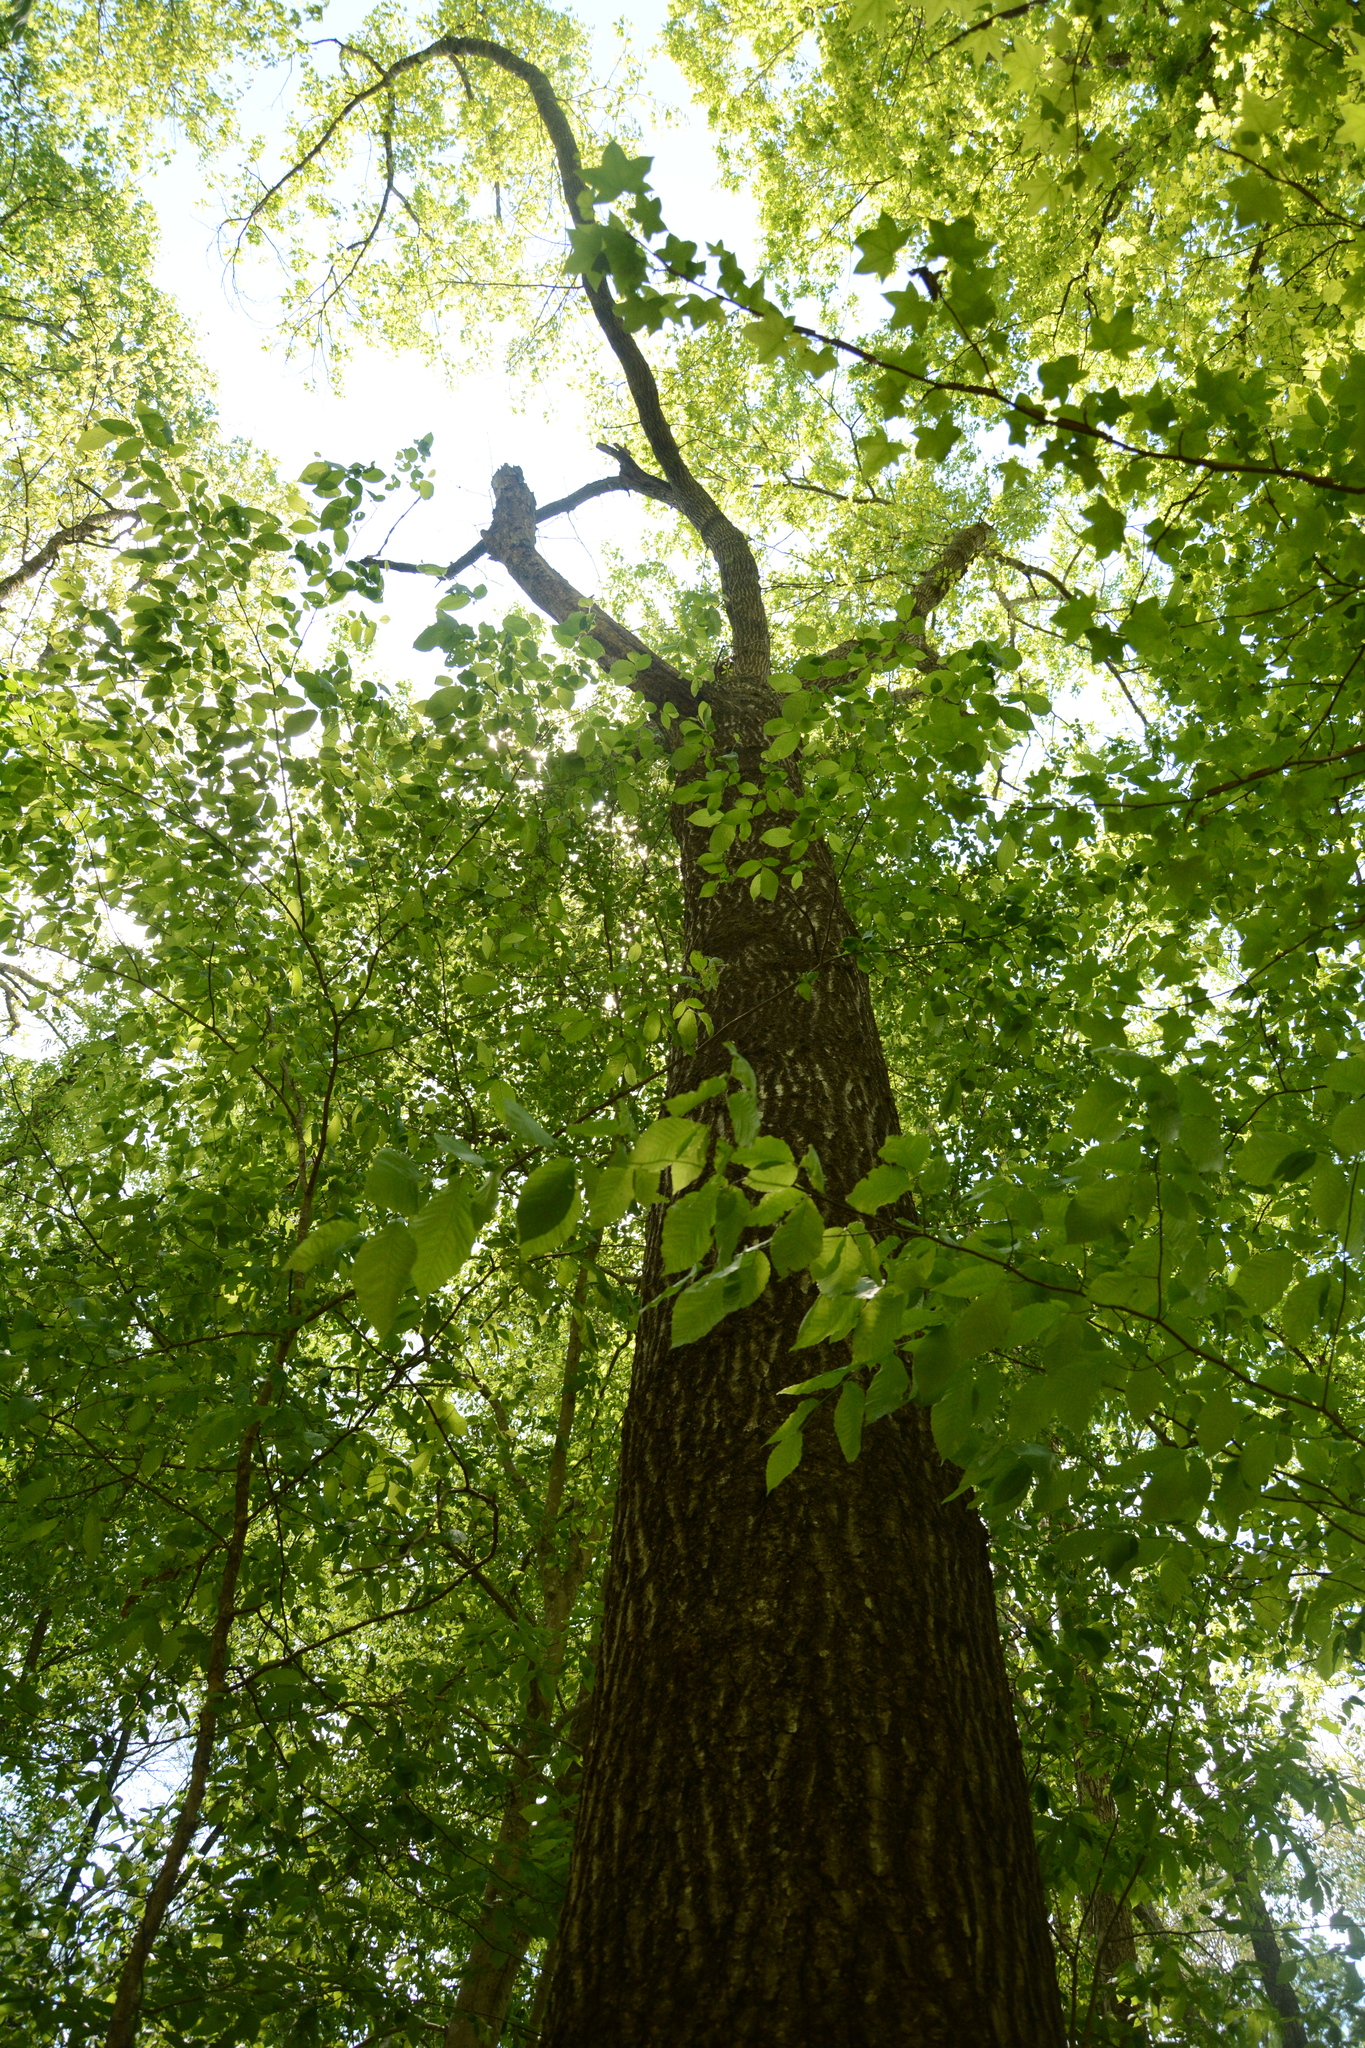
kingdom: Plantae
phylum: Tracheophyta
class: Magnoliopsida
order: Fagales
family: Fagaceae
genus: Quercus
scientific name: Quercus rubra
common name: Red oak
